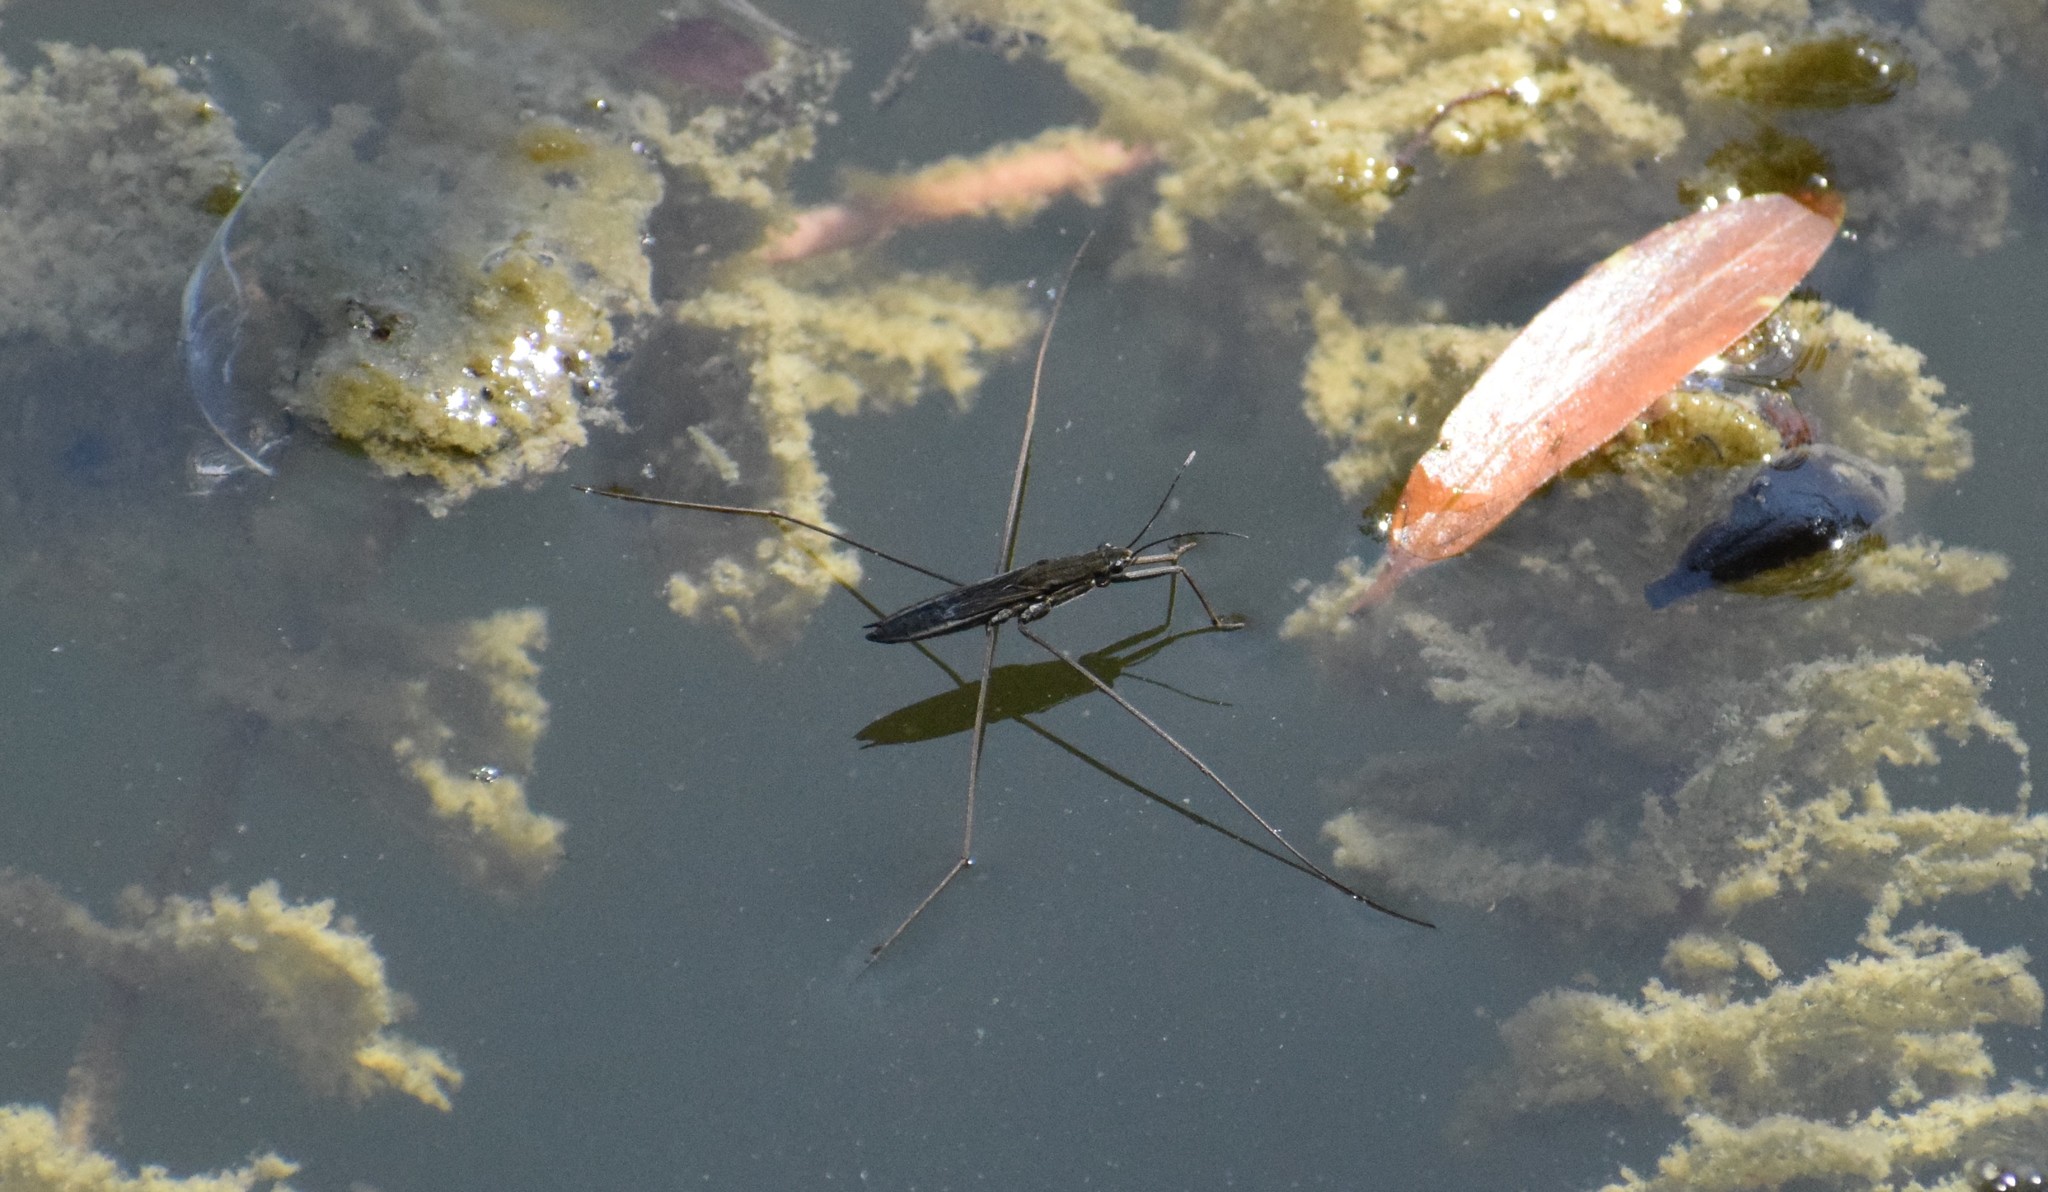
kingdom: Animalia
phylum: Arthropoda
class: Insecta
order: Hemiptera
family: Gerridae
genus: Aquarius
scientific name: Aquarius paludum
